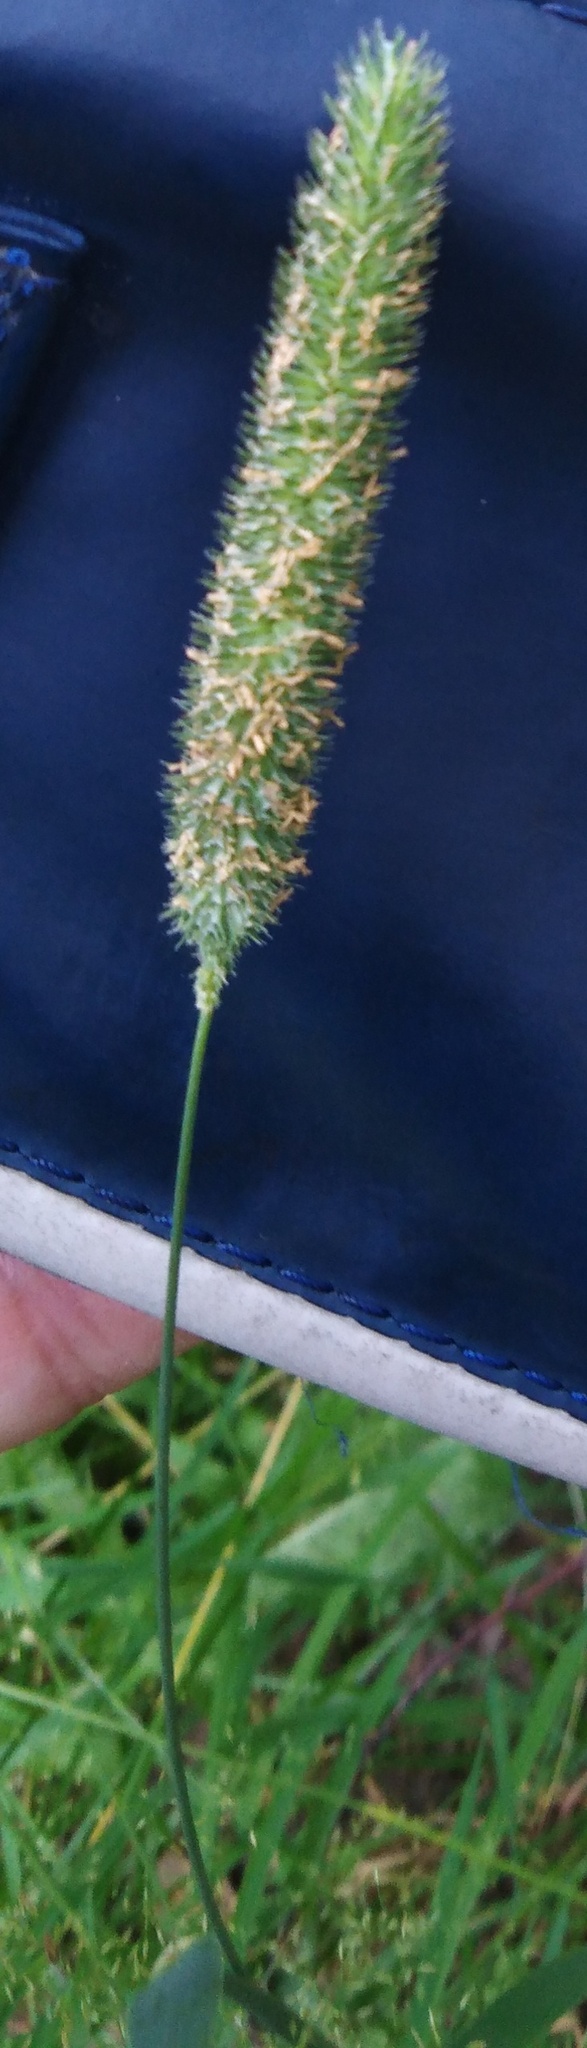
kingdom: Plantae
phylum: Tracheophyta
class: Liliopsida
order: Poales
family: Poaceae
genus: Phleum
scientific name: Phleum pratense
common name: Timothy grass
